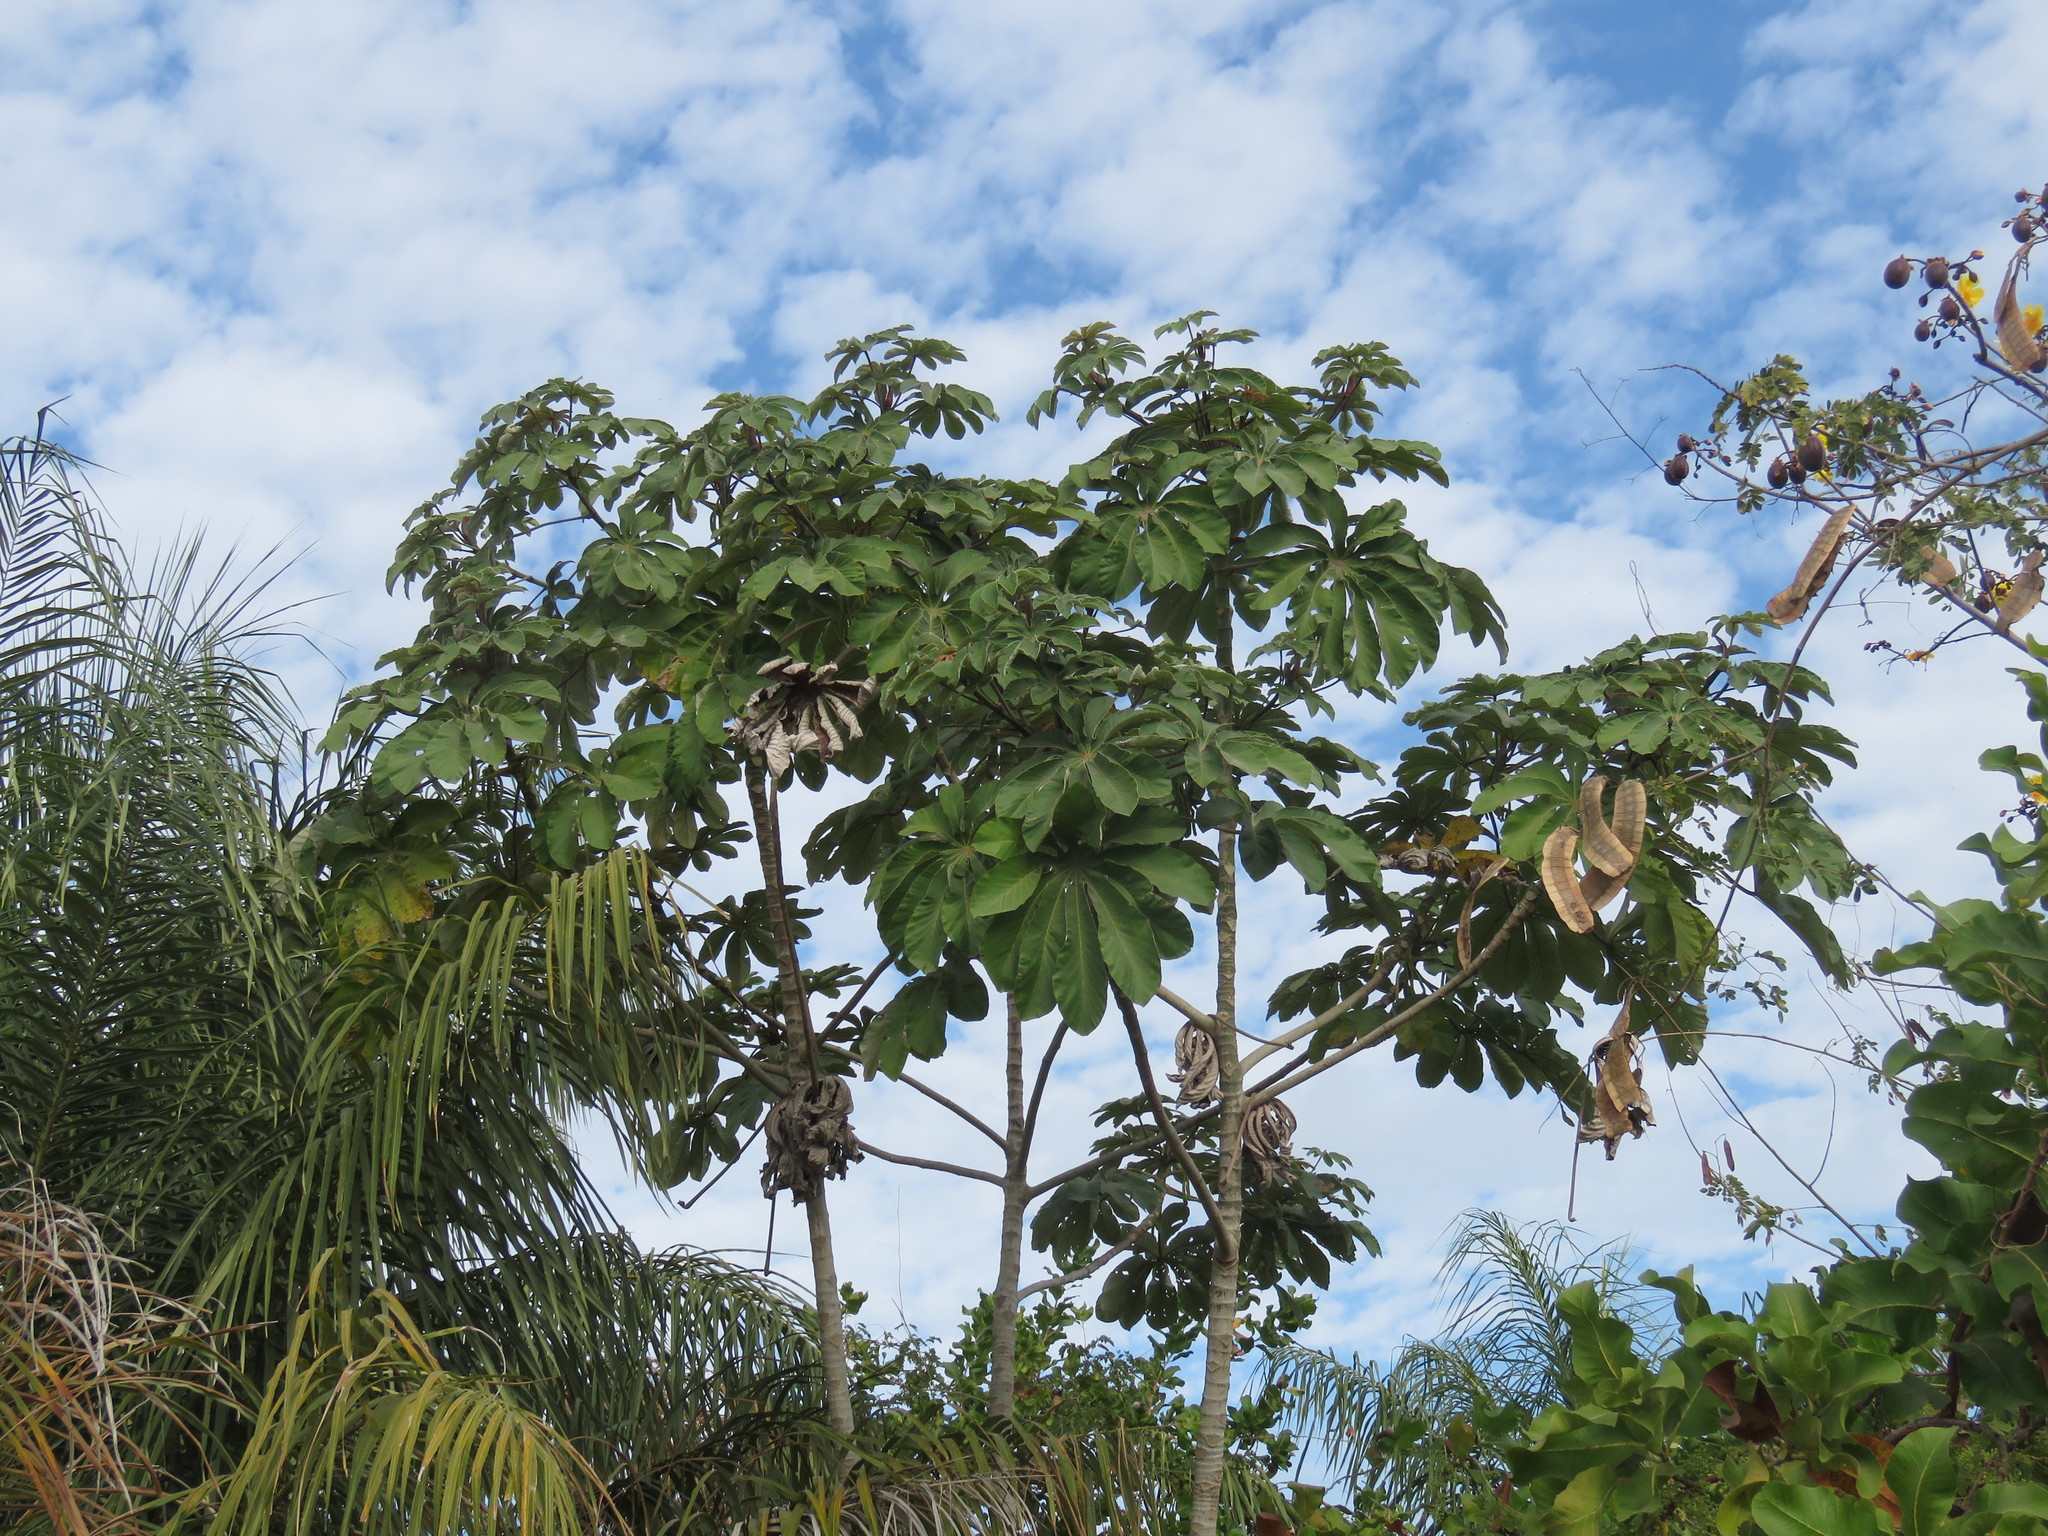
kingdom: Plantae
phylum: Tracheophyta
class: Magnoliopsida
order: Rosales
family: Urticaceae
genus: Cecropia
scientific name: Cecropia obtusifolia
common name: Trumpet tree
